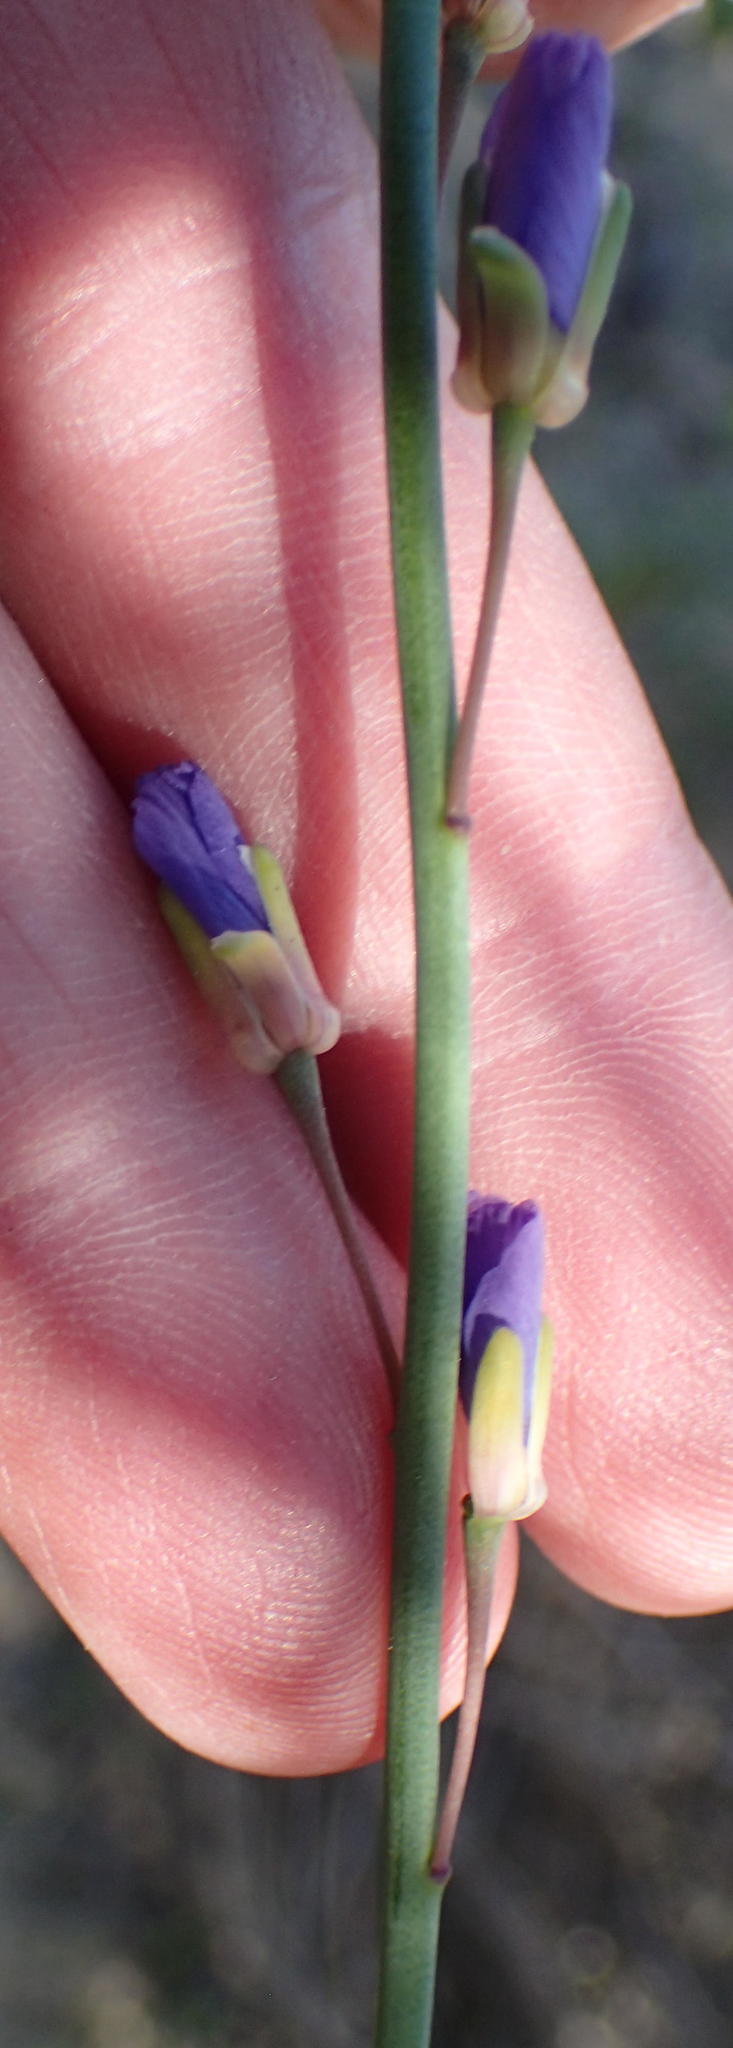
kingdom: Plantae
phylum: Tracheophyta
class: Magnoliopsida
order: Brassicales
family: Brassicaceae
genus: Heliophila
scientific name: Heliophila linearis
